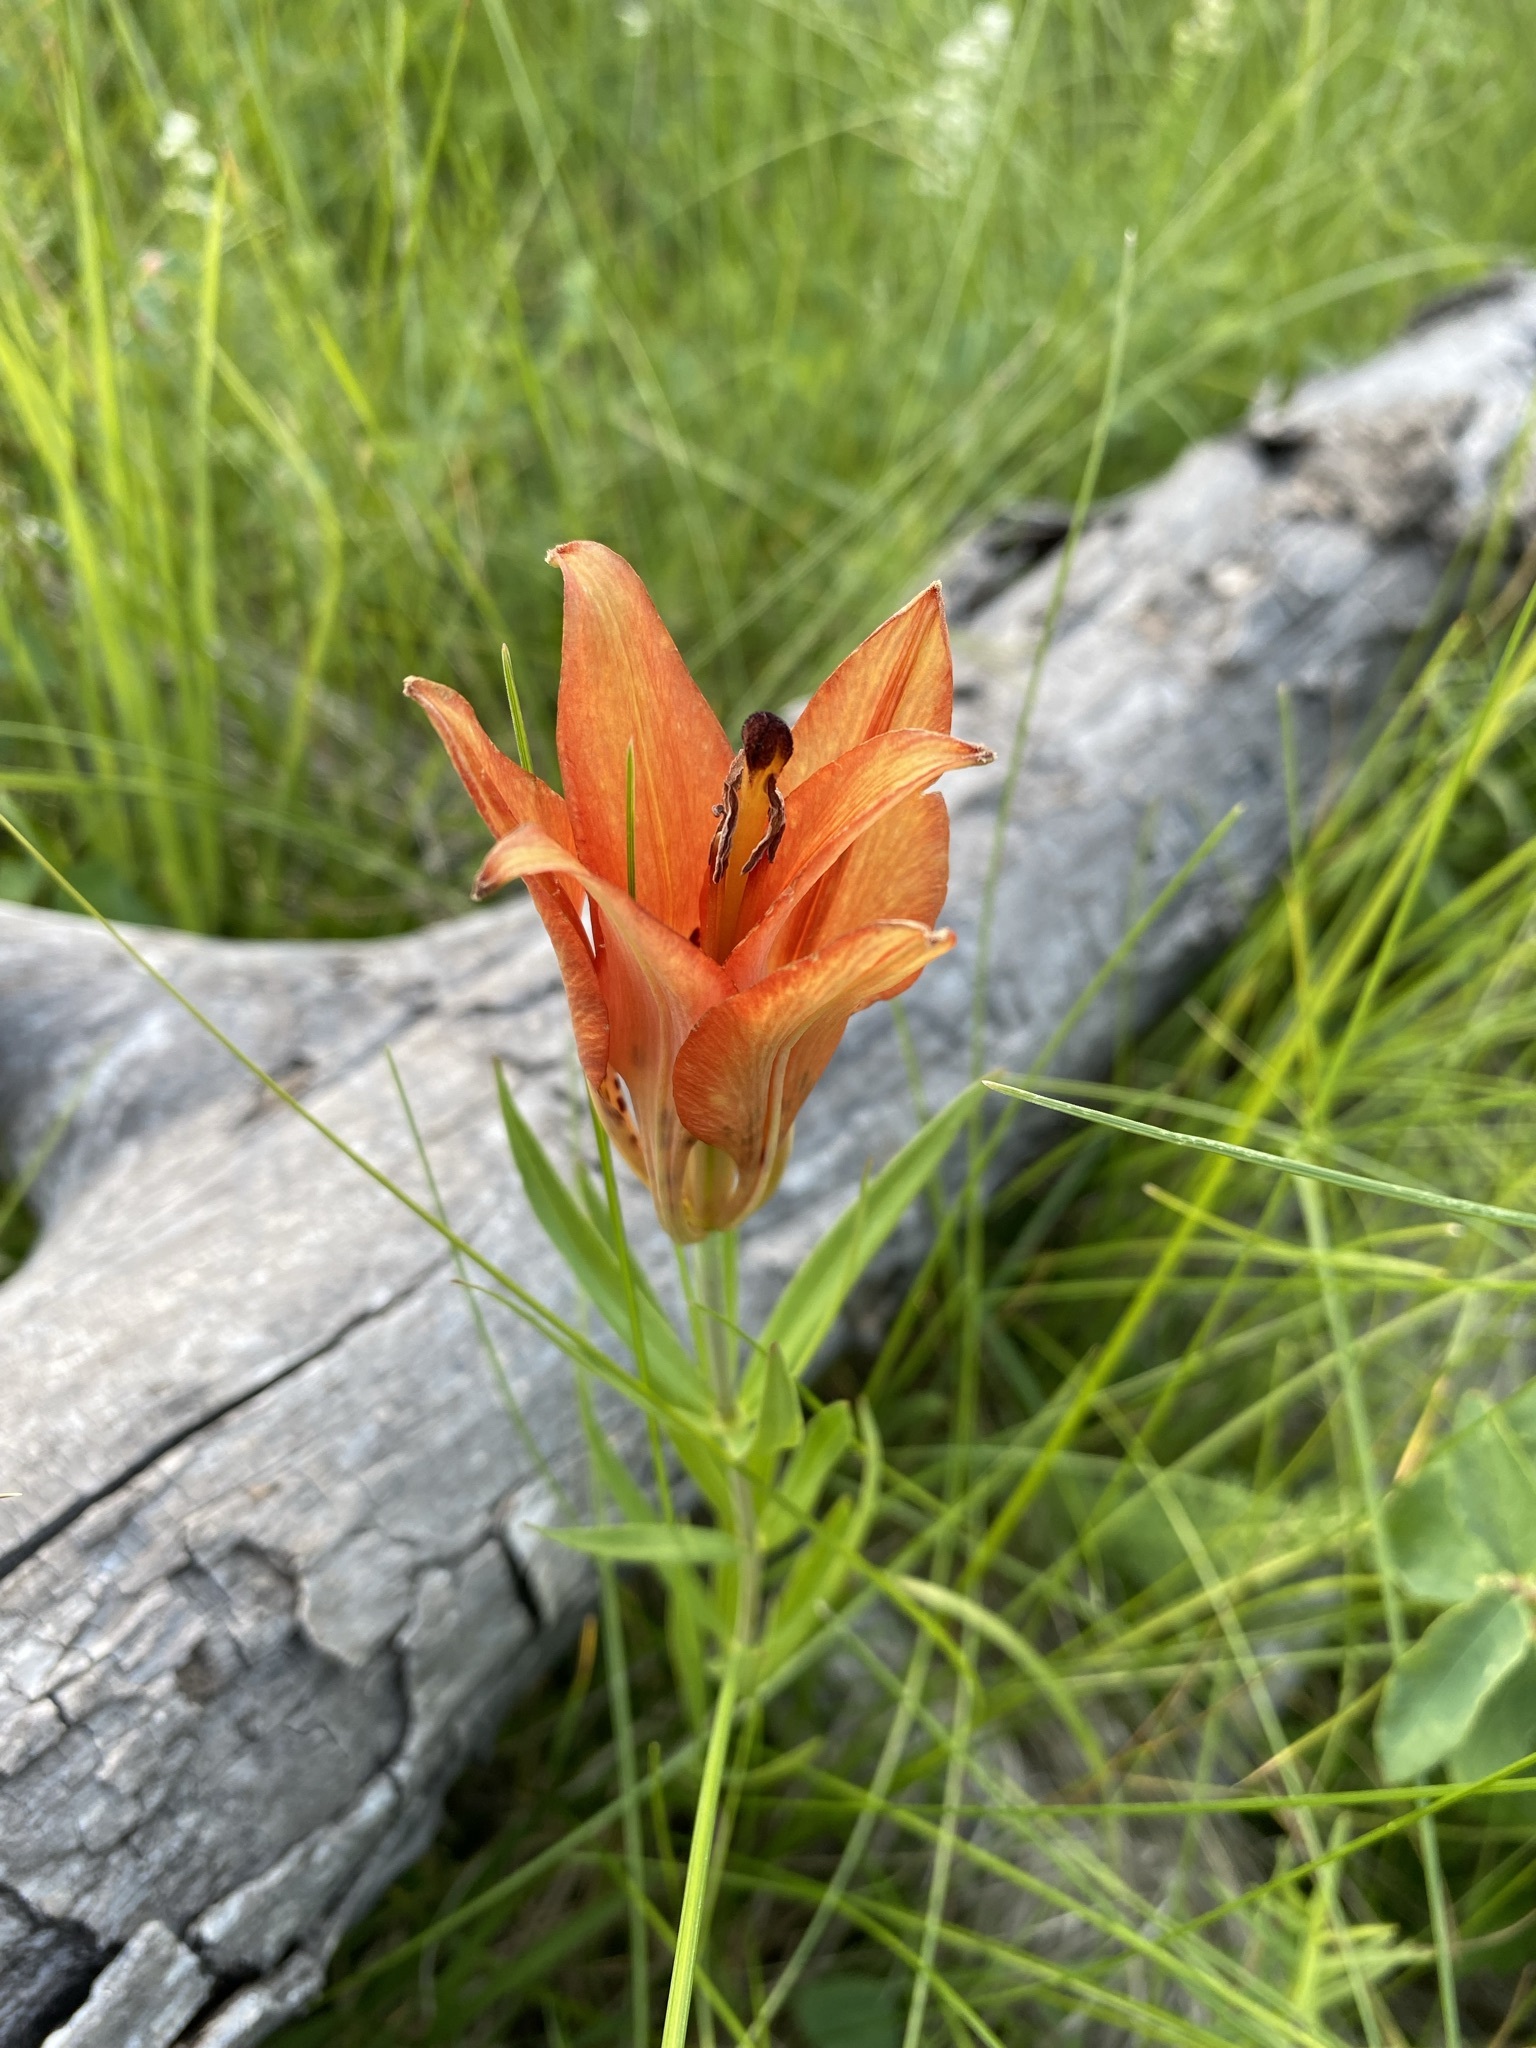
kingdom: Plantae
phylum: Tracheophyta
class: Liliopsida
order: Liliales
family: Liliaceae
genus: Lilium
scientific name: Lilium philadelphicum
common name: Red lily
